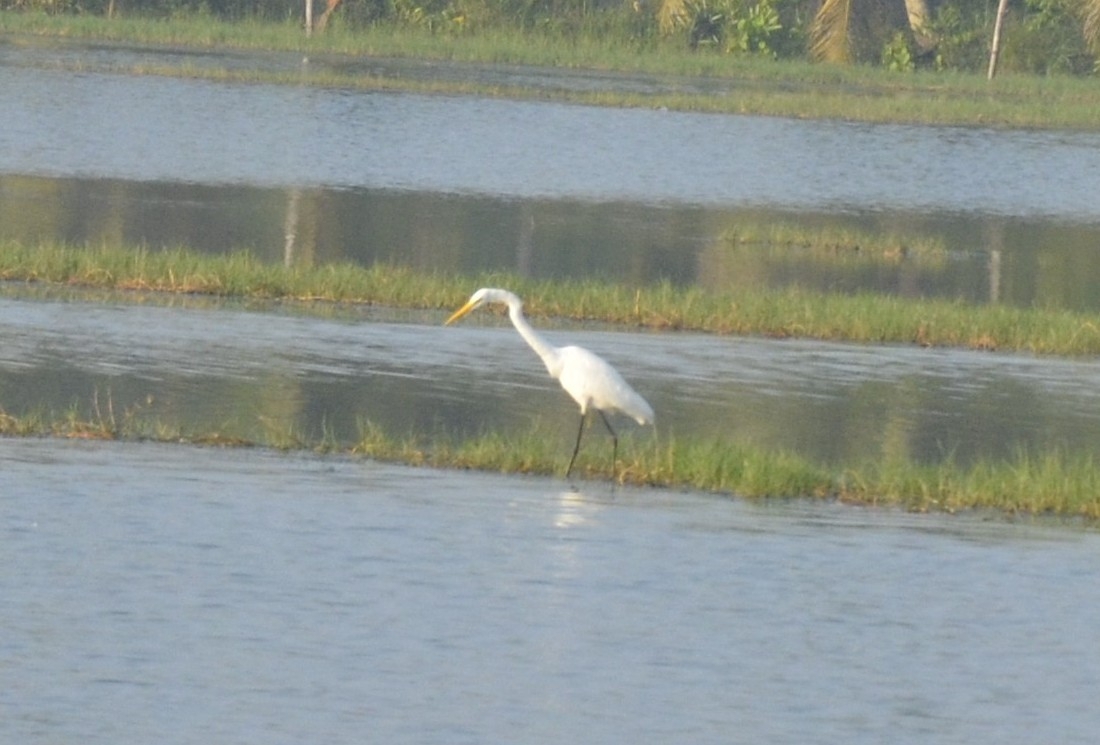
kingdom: Animalia
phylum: Chordata
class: Aves
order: Pelecaniformes
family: Ardeidae
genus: Ardea
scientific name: Ardea alba
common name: Great egret
